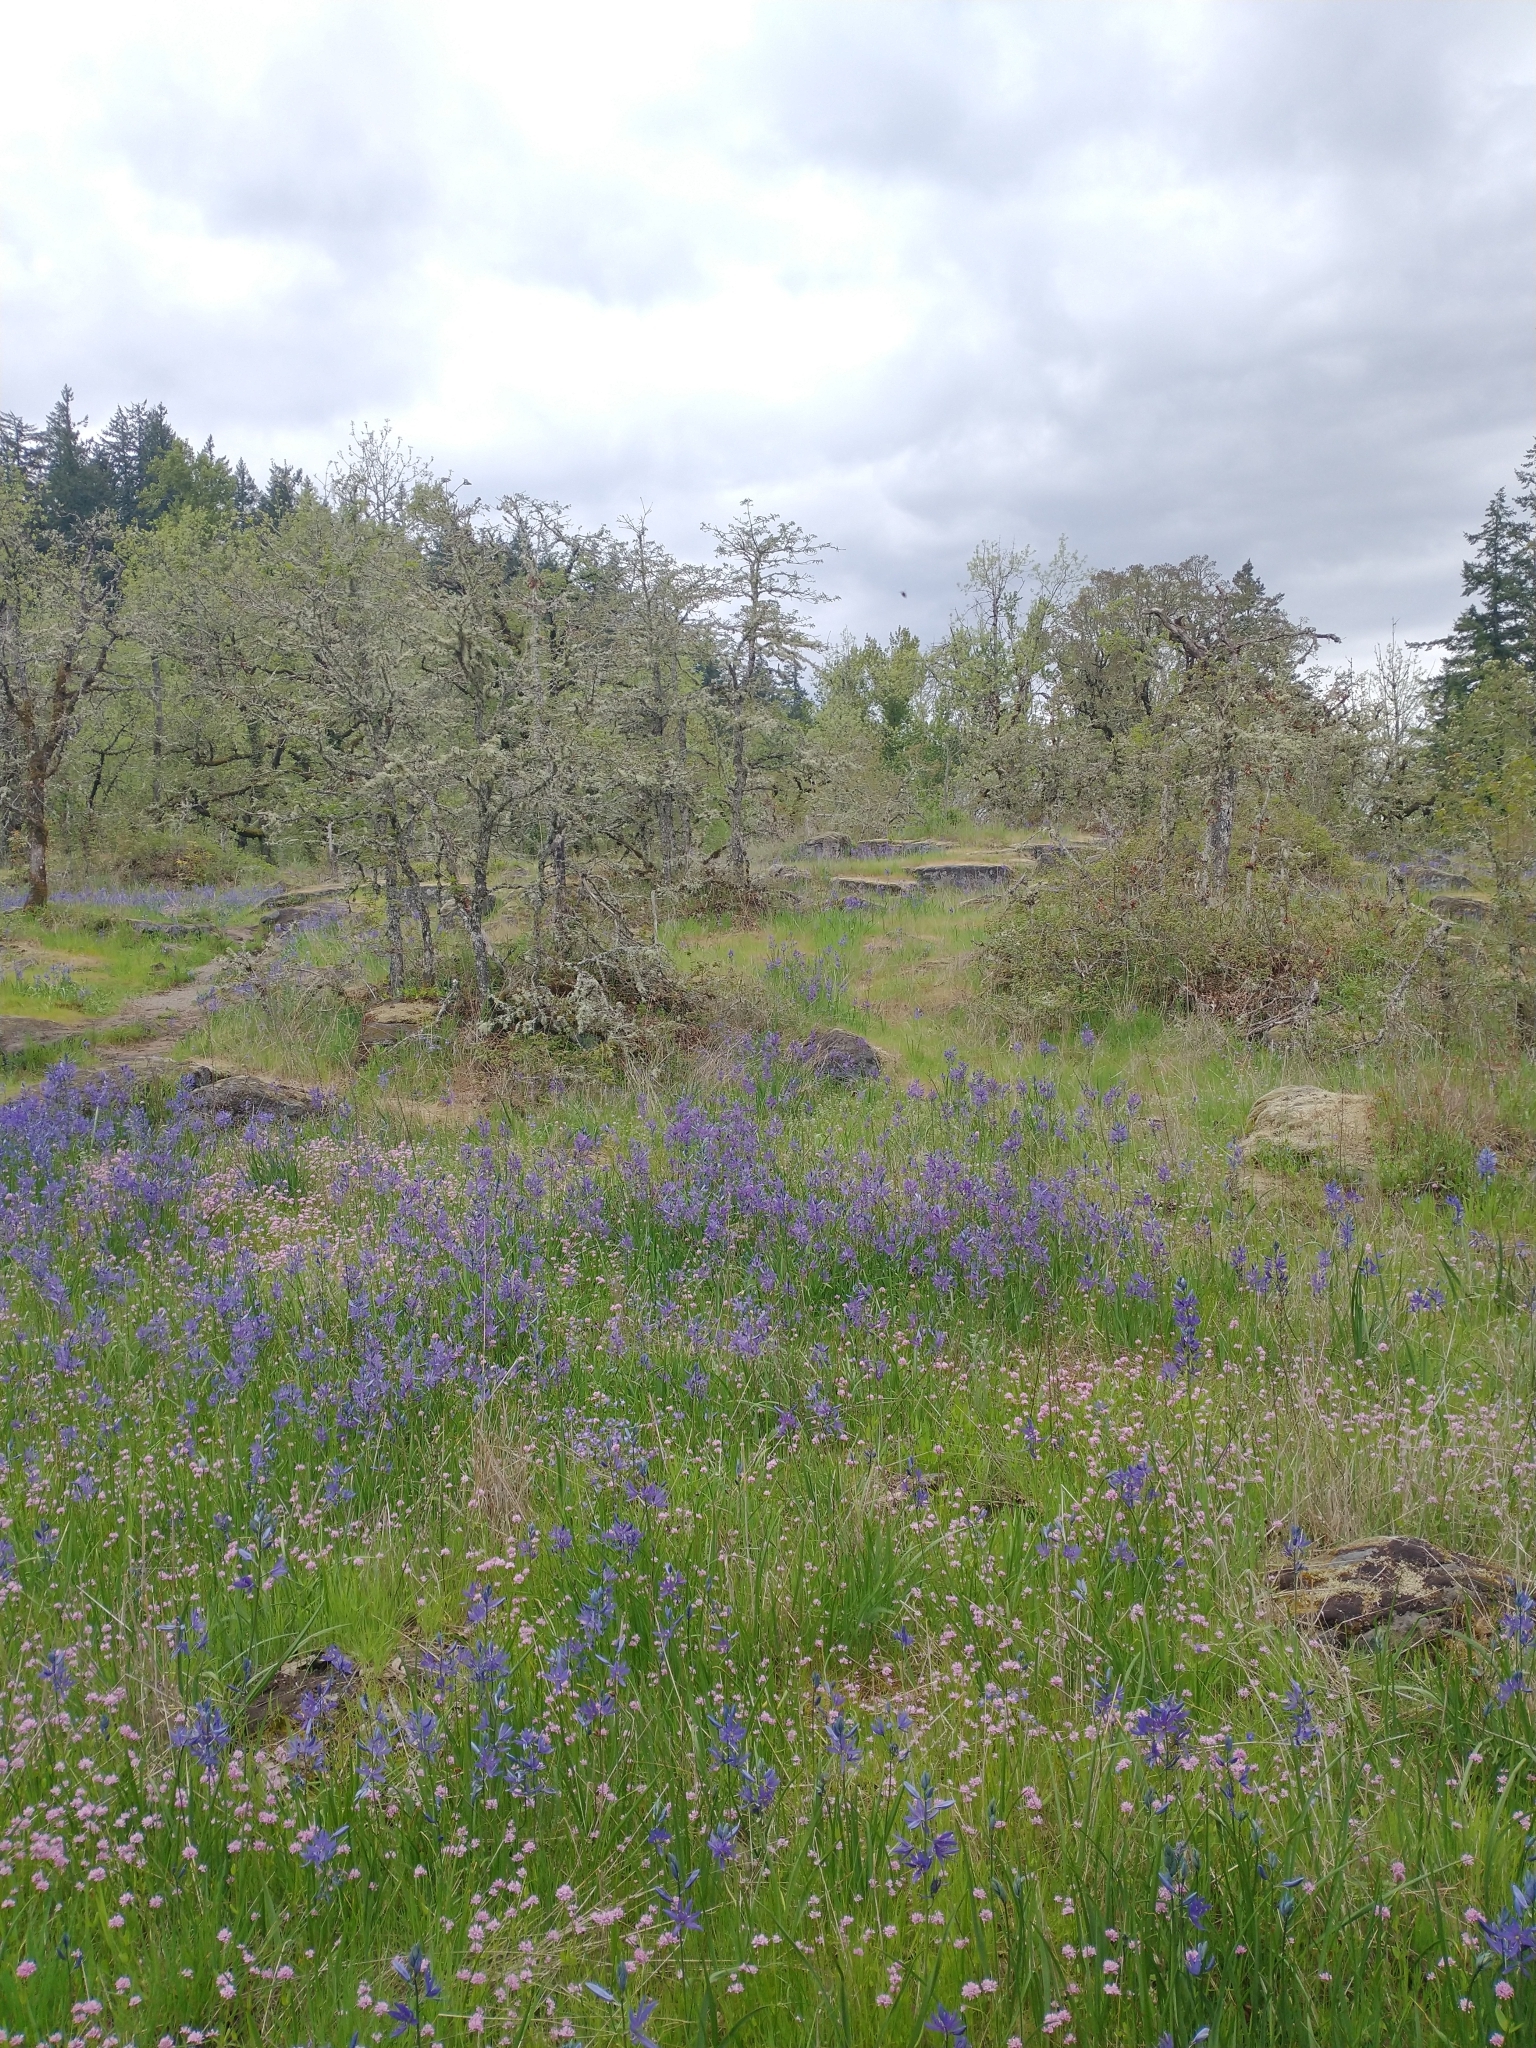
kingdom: Plantae
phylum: Tracheophyta
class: Magnoliopsida
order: Fagales
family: Fagaceae
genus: Quercus
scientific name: Quercus garryana
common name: Garry oak
